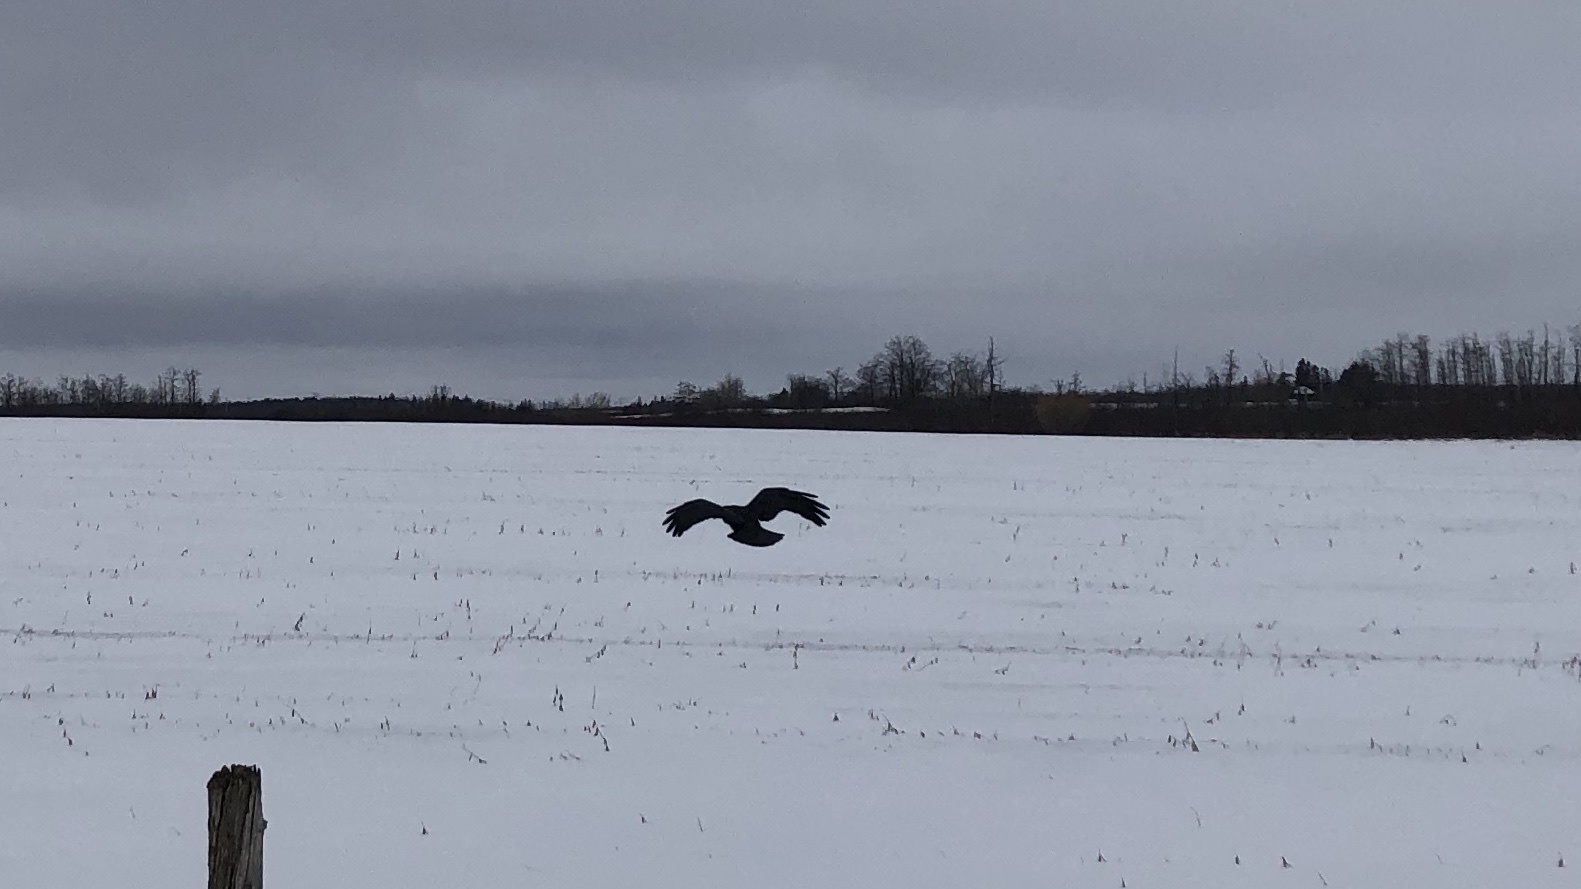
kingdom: Animalia
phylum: Chordata
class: Aves
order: Passeriformes
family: Corvidae
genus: Corvus
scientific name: Corvus corax
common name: Common raven
